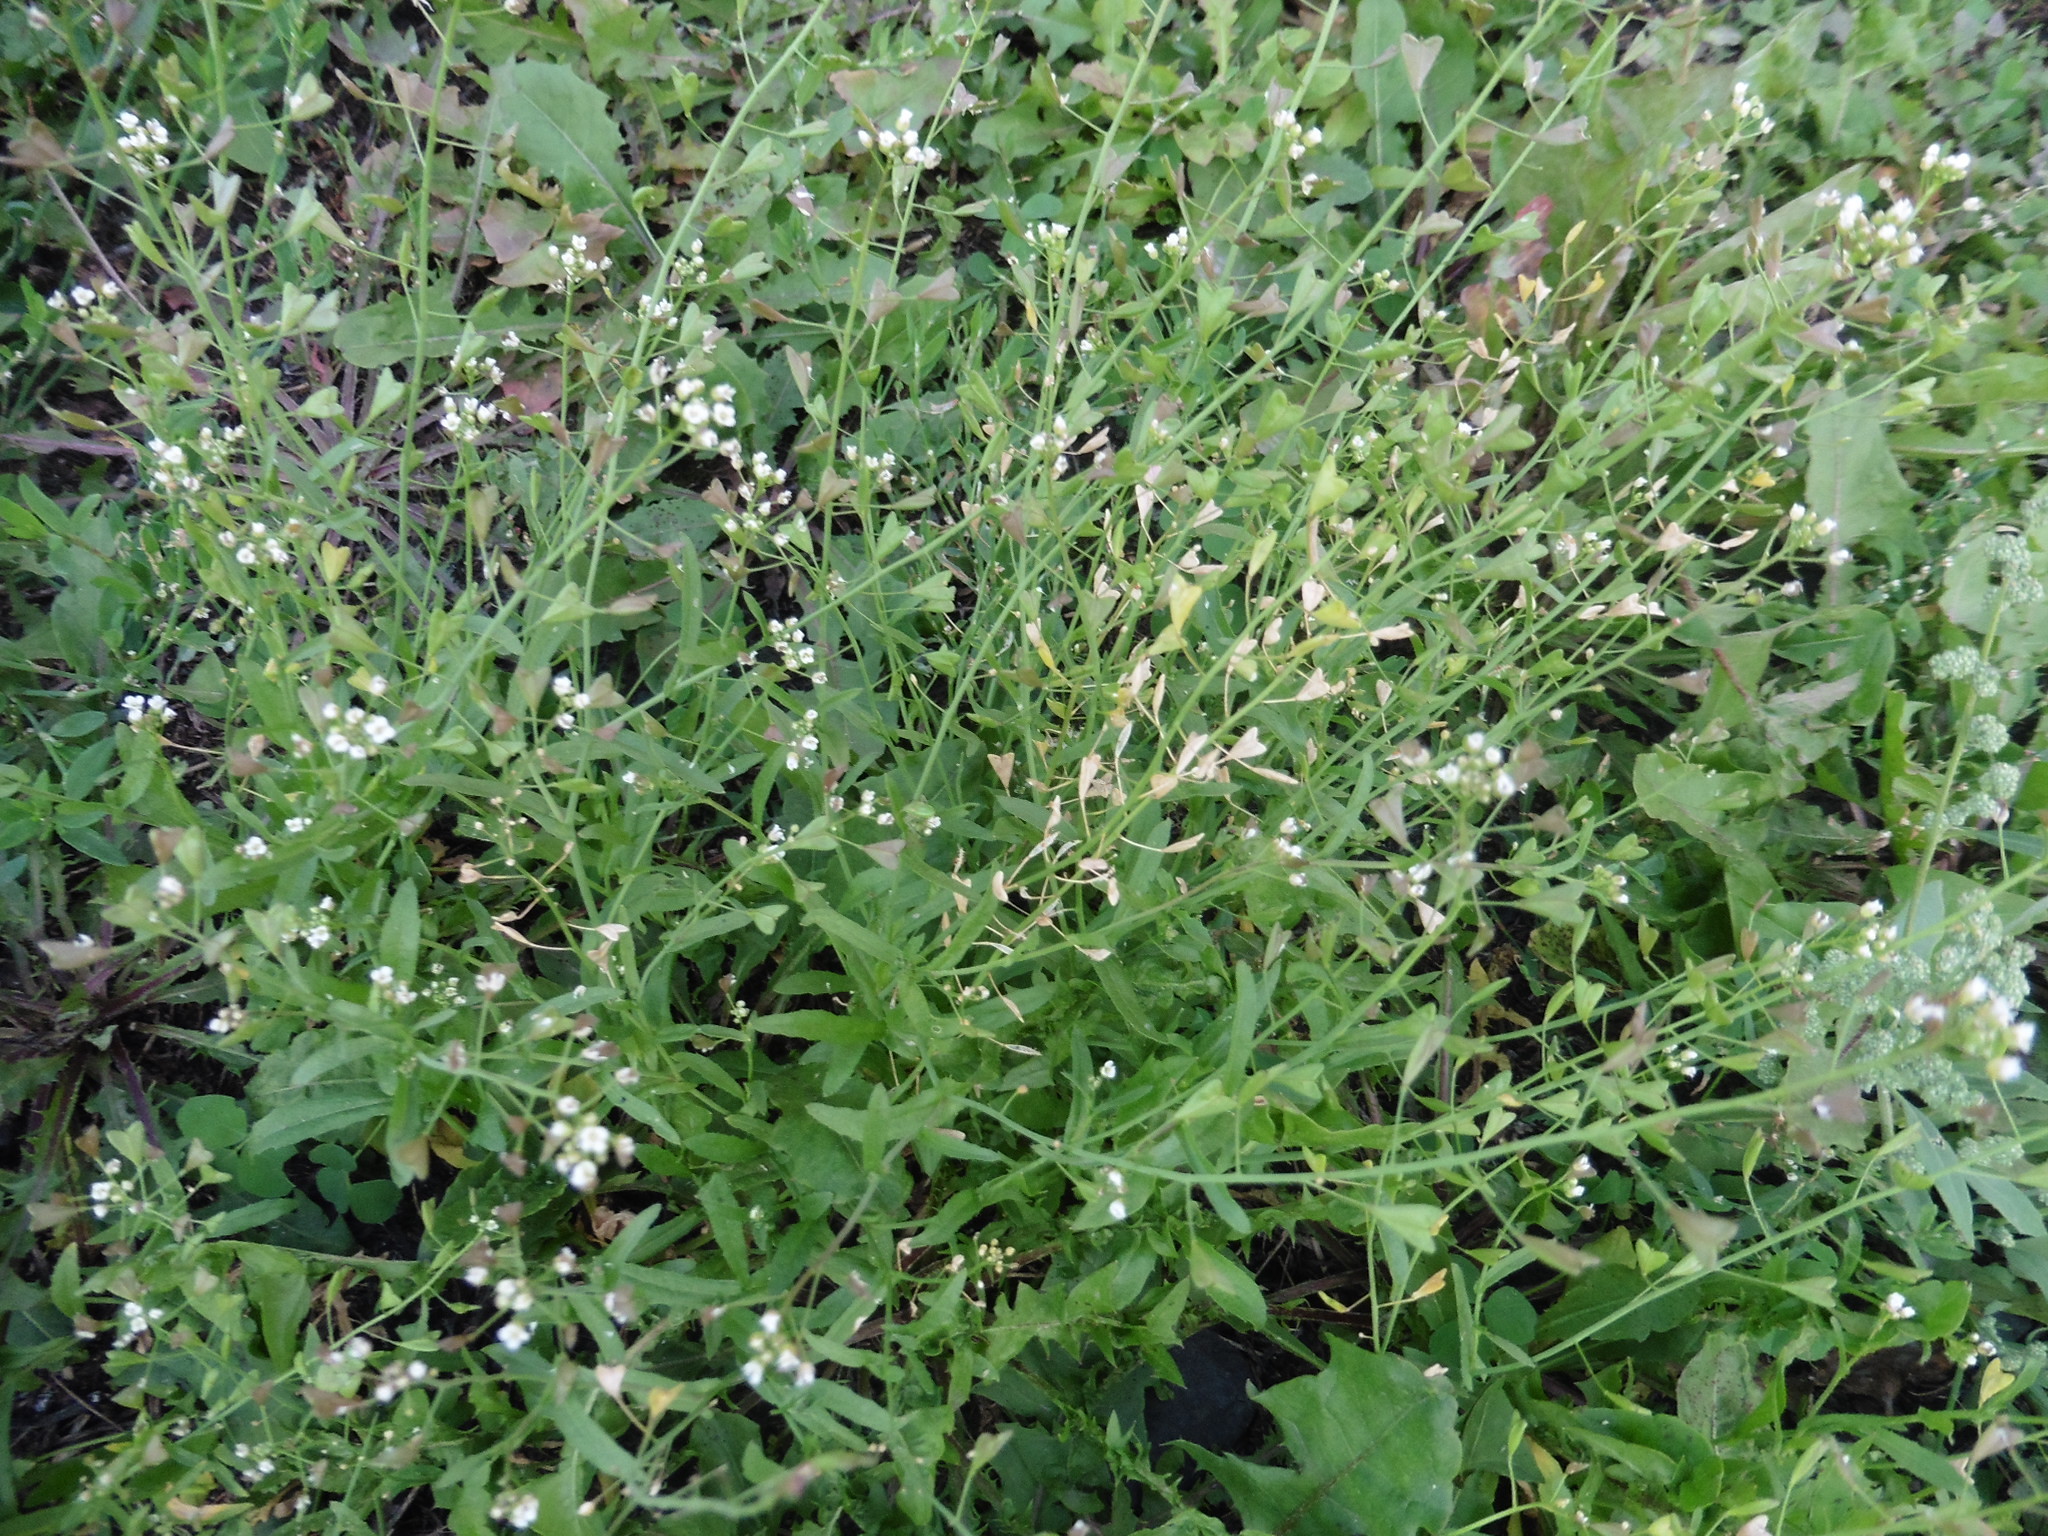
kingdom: Plantae
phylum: Tracheophyta
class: Magnoliopsida
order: Brassicales
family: Brassicaceae
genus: Capsella
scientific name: Capsella bursa-pastoris
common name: Shepherd's purse
